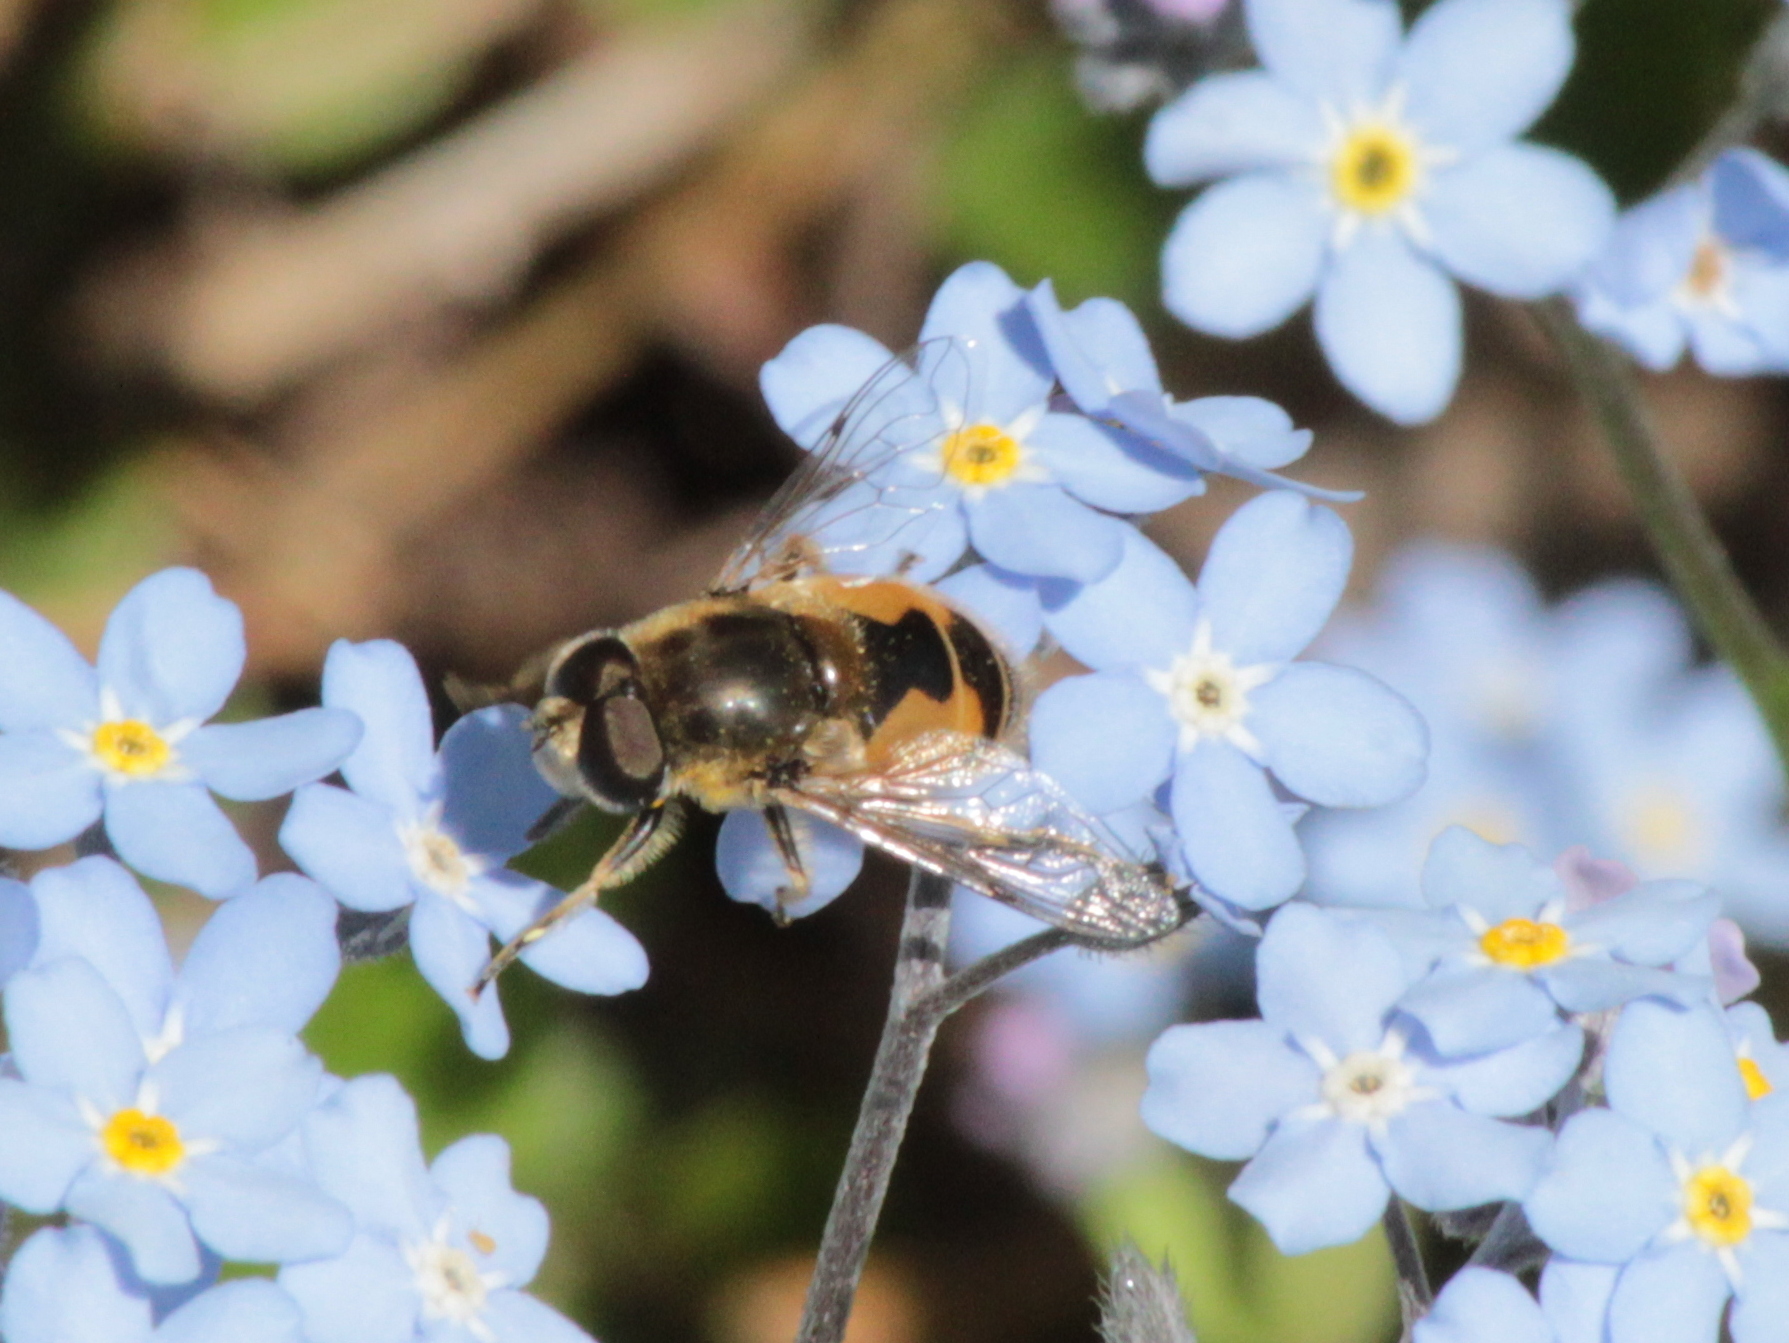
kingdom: Animalia
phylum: Arthropoda
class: Insecta
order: Diptera
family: Syrphidae
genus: Eristalis
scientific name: Eristalis arbustorum
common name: Hover fly
